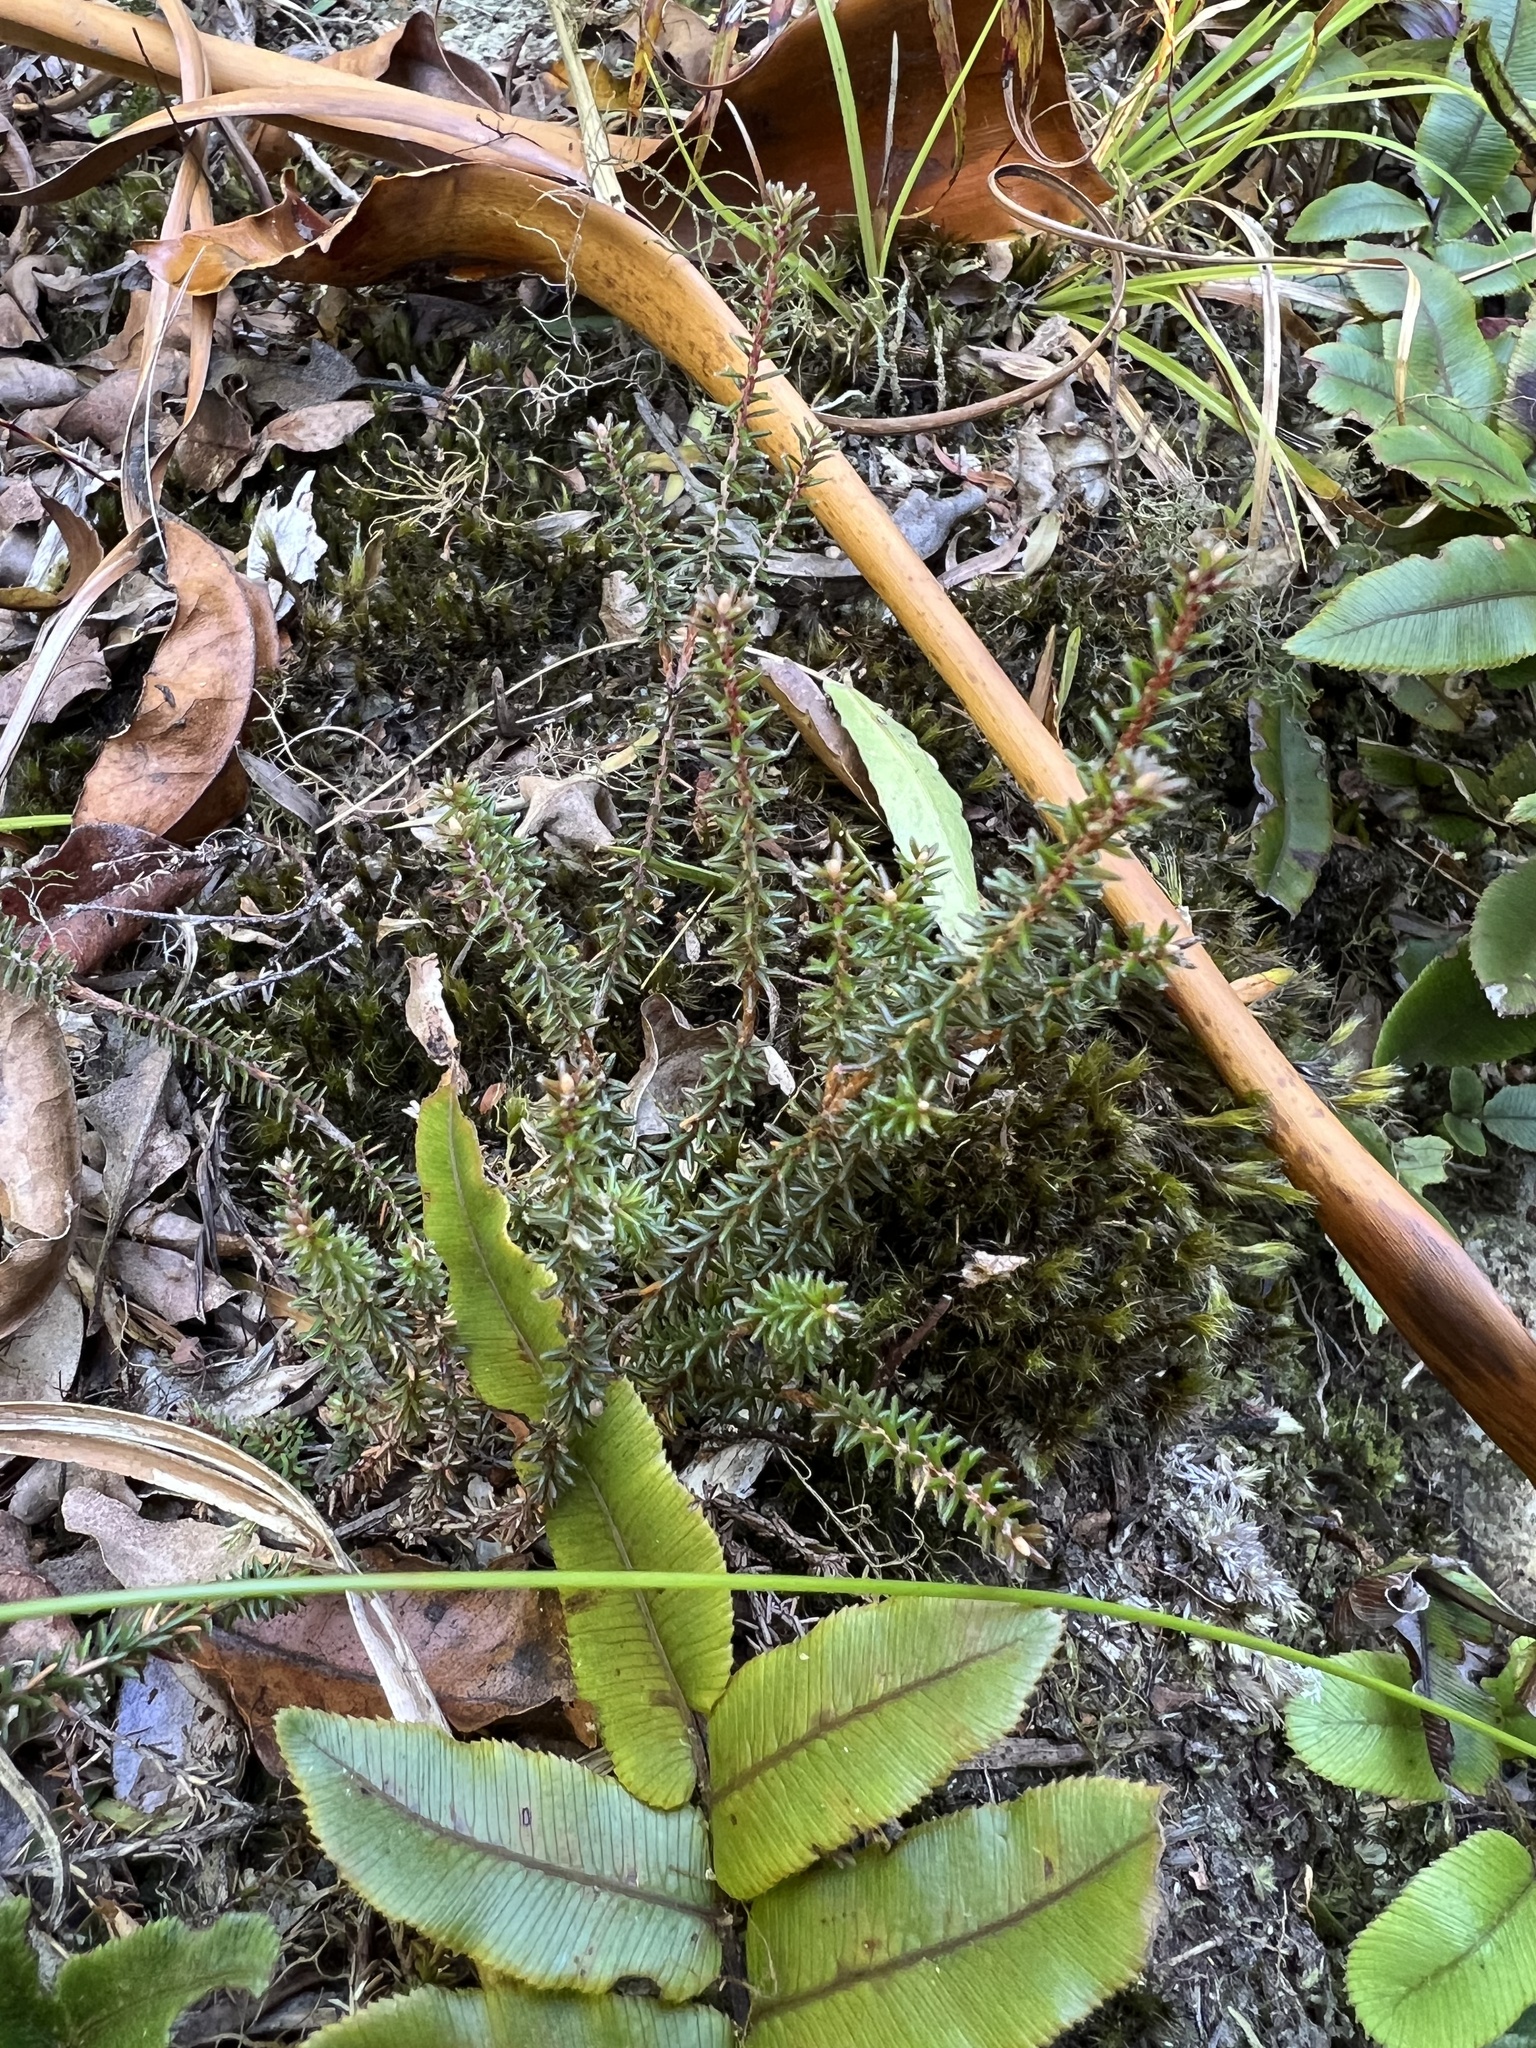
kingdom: Plantae
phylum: Tracheophyta
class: Magnoliopsida
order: Ericales
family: Ericaceae
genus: Androstoma
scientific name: Androstoma empetrifolia
